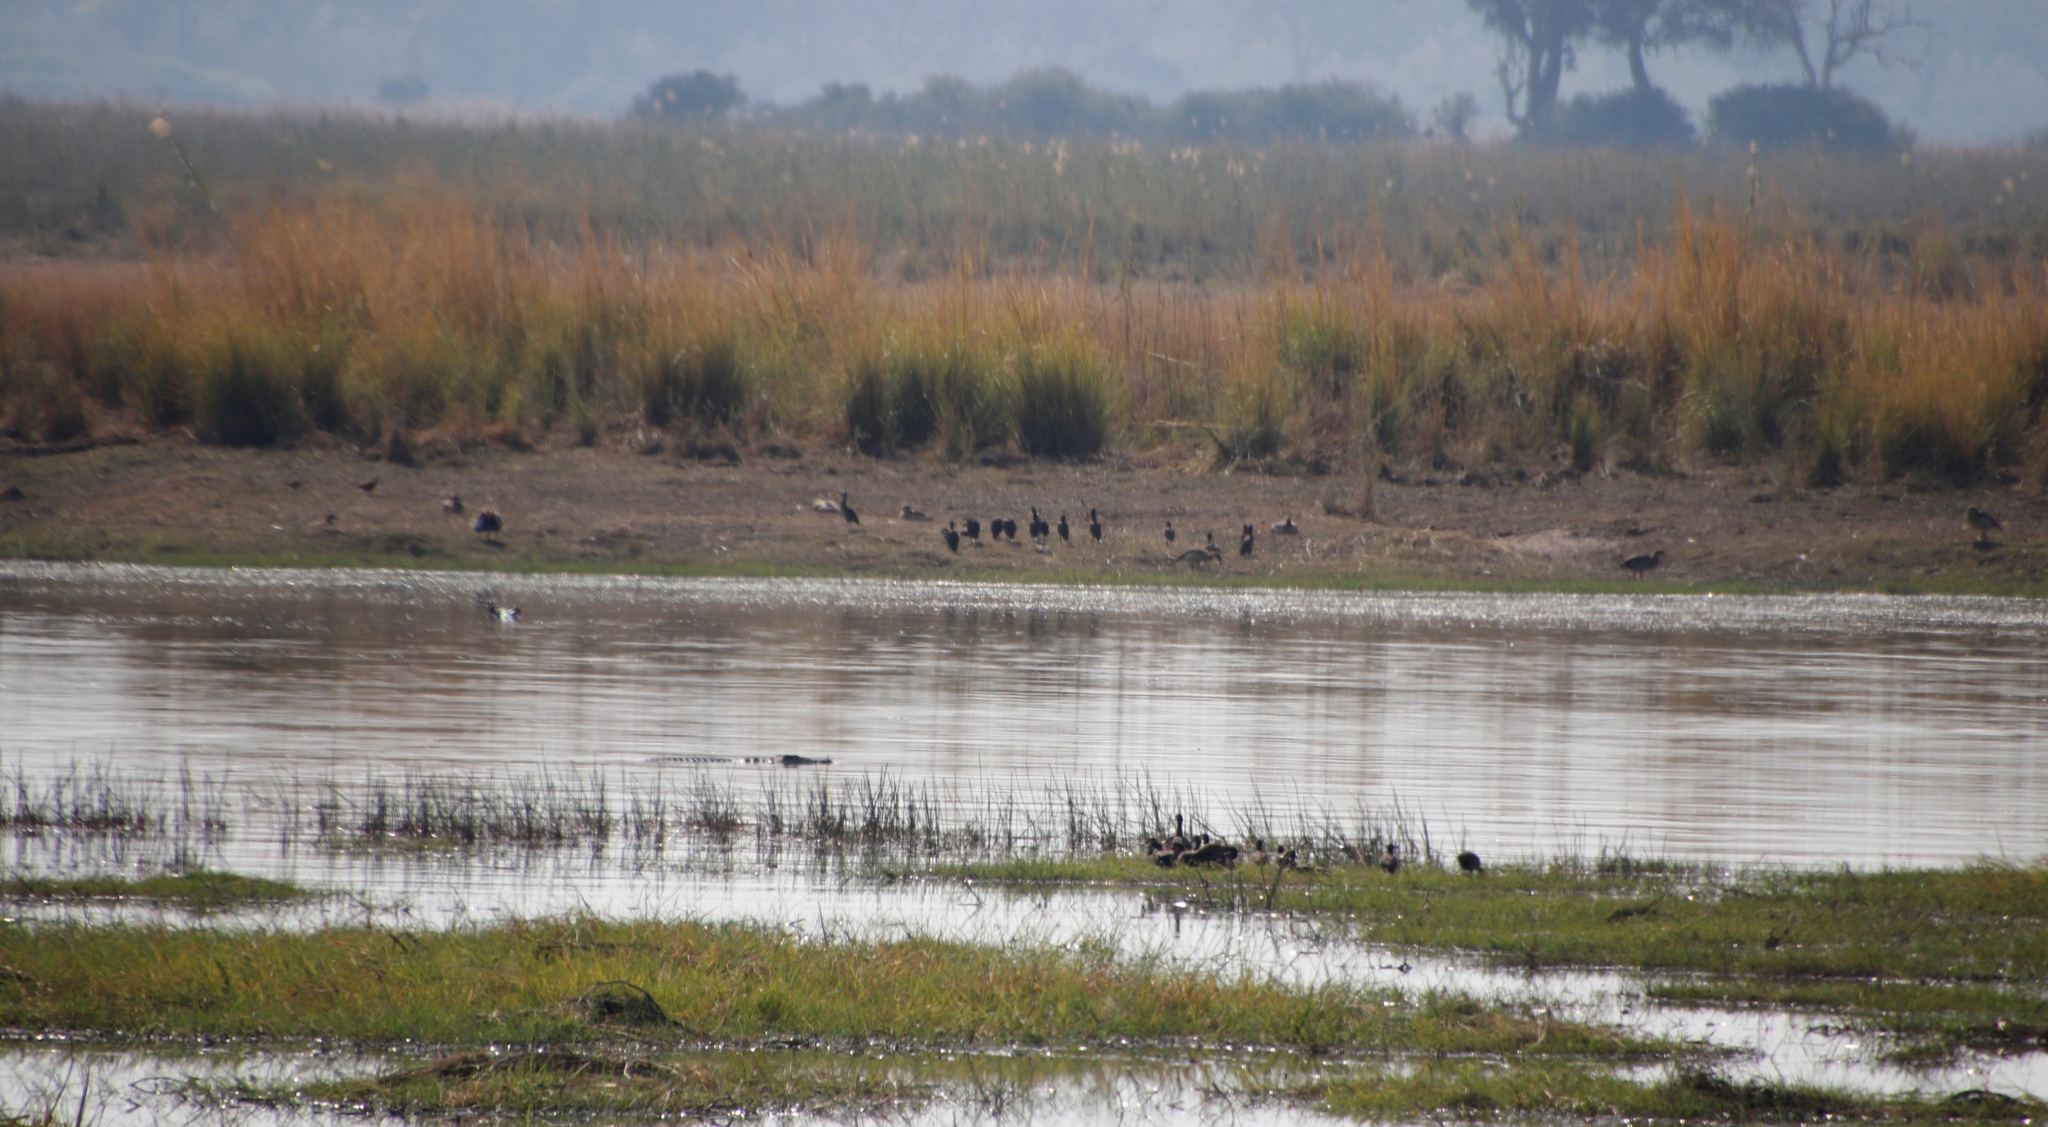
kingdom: Animalia
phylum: Chordata
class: Aves
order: Anseriformes
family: Anatidae
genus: Dendrocygna
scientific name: Dendrocygna viduata
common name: White-faced whistling duck
